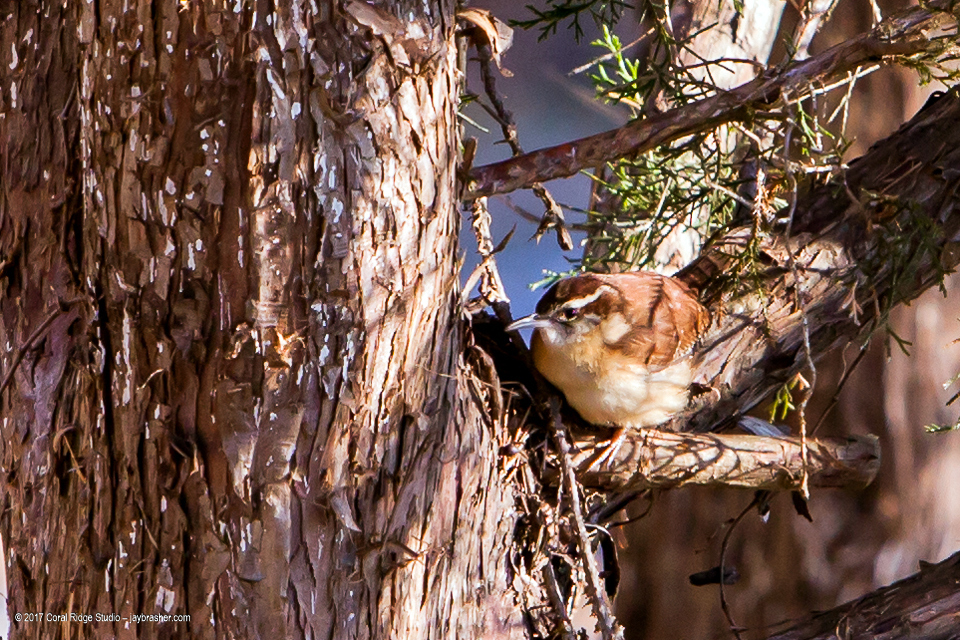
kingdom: Animalia
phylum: Chordata
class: Aves
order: Passeriformes
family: Troglodytidae
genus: Thryothorus
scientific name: Thryothorus ludovicianus
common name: Carolina wren
